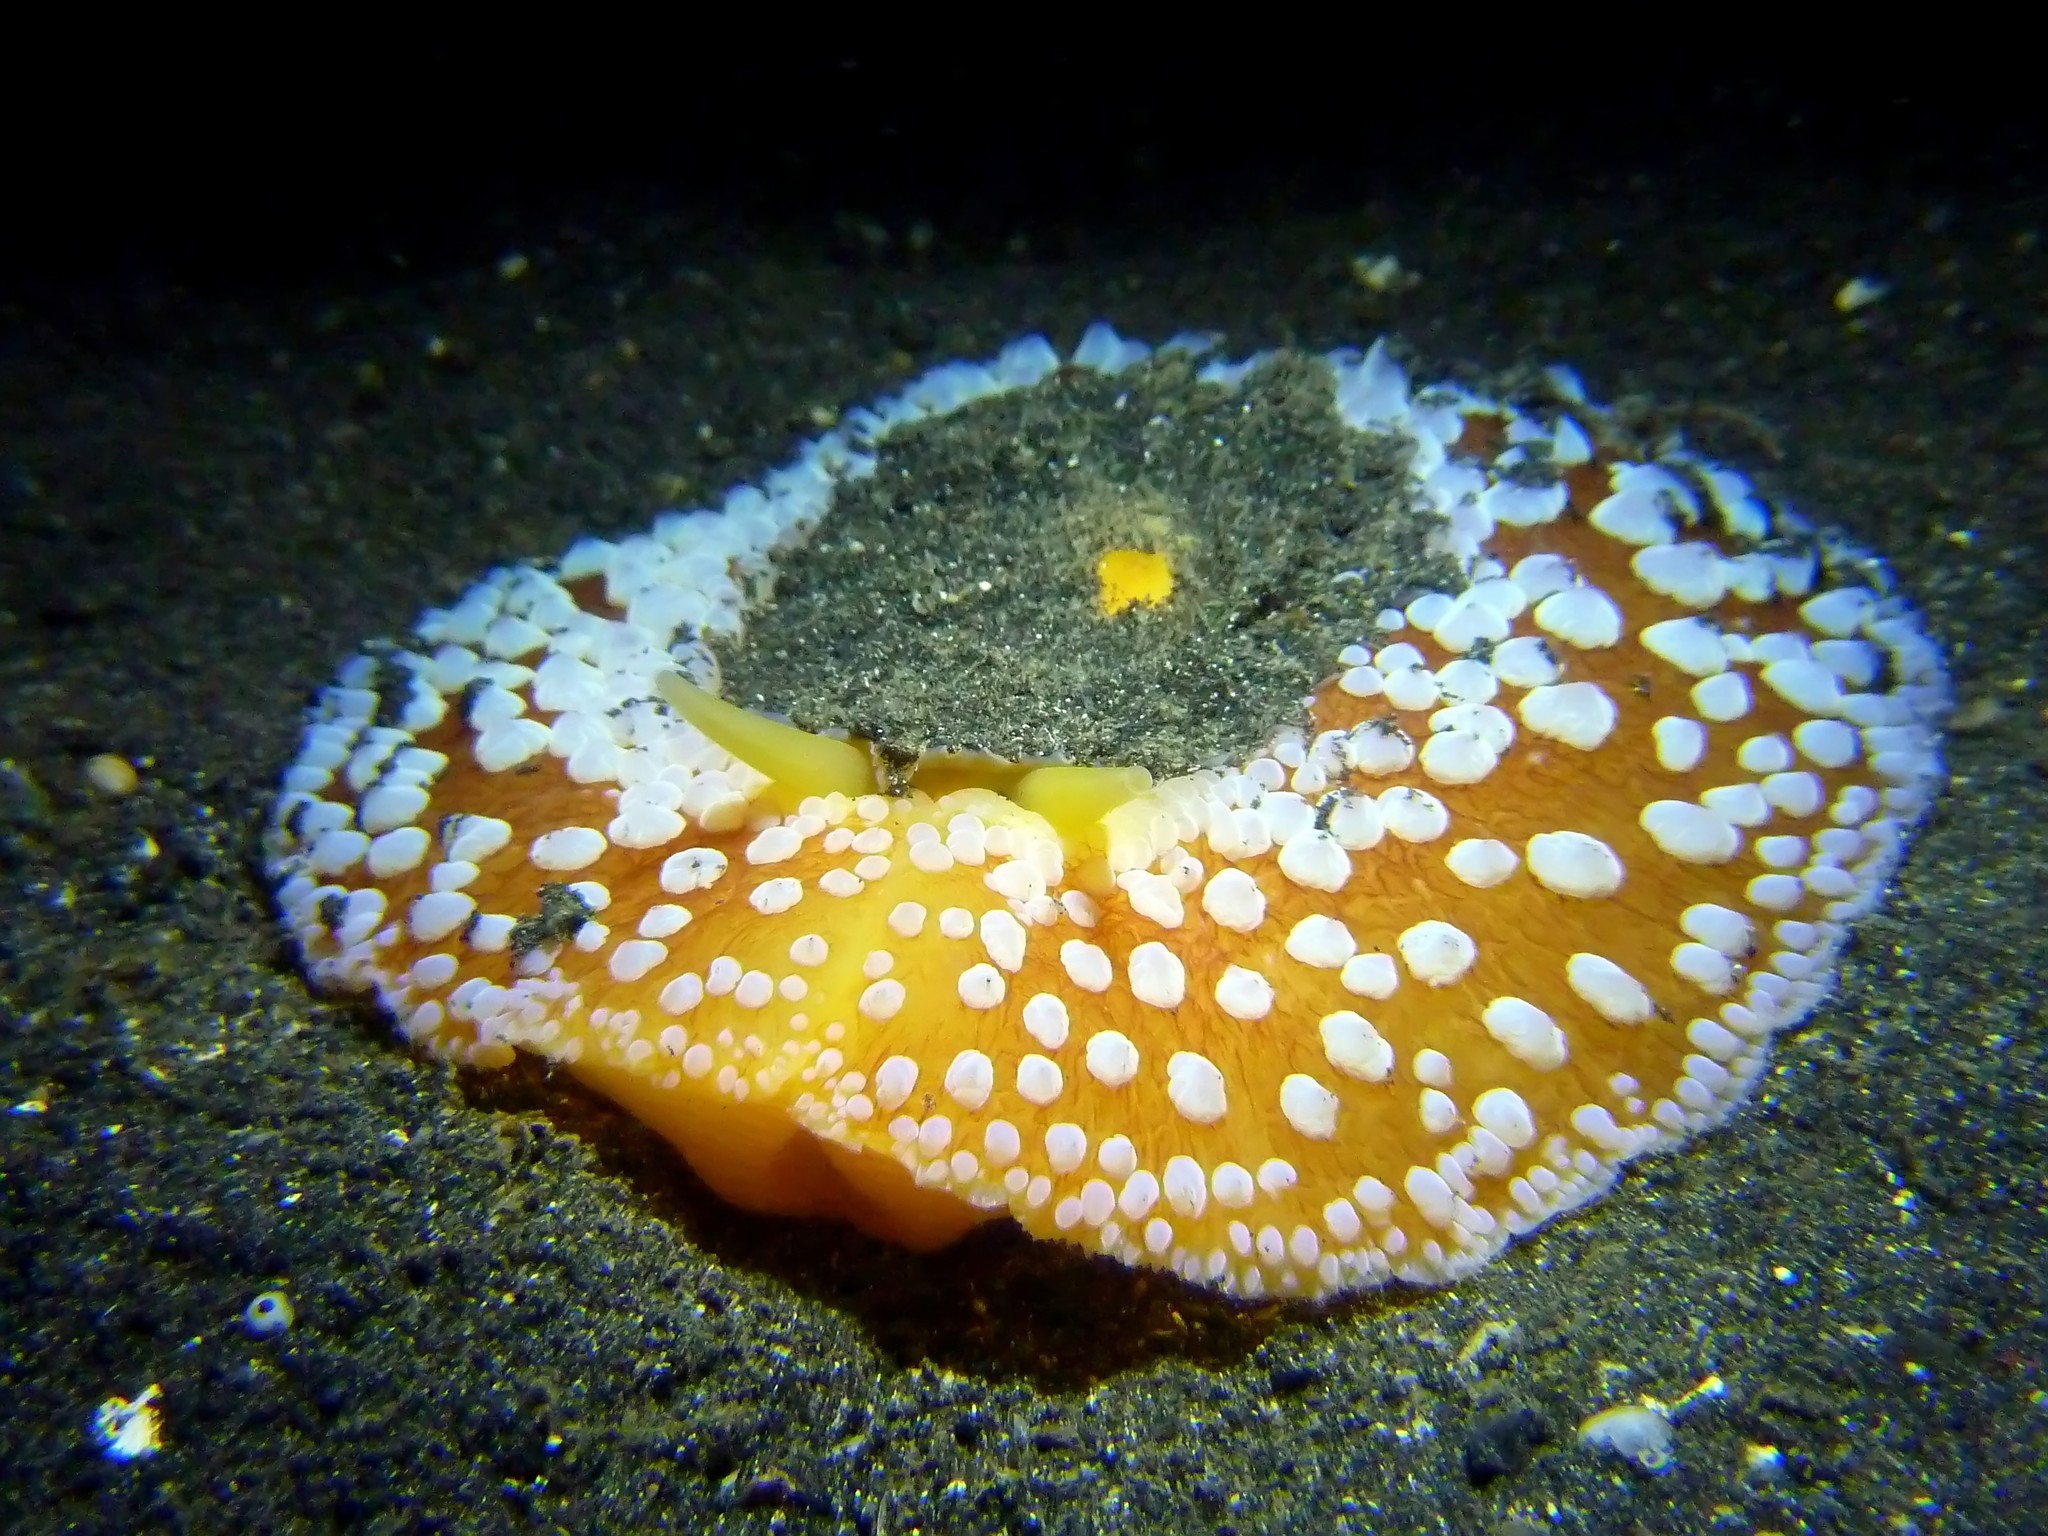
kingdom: Animalia
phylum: Mollusca
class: Gastropoda
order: Umbraculida
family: Umbraculidae
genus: Umbraculum
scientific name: Umbraculum umbraculum
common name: Atlantic umbrella slug
